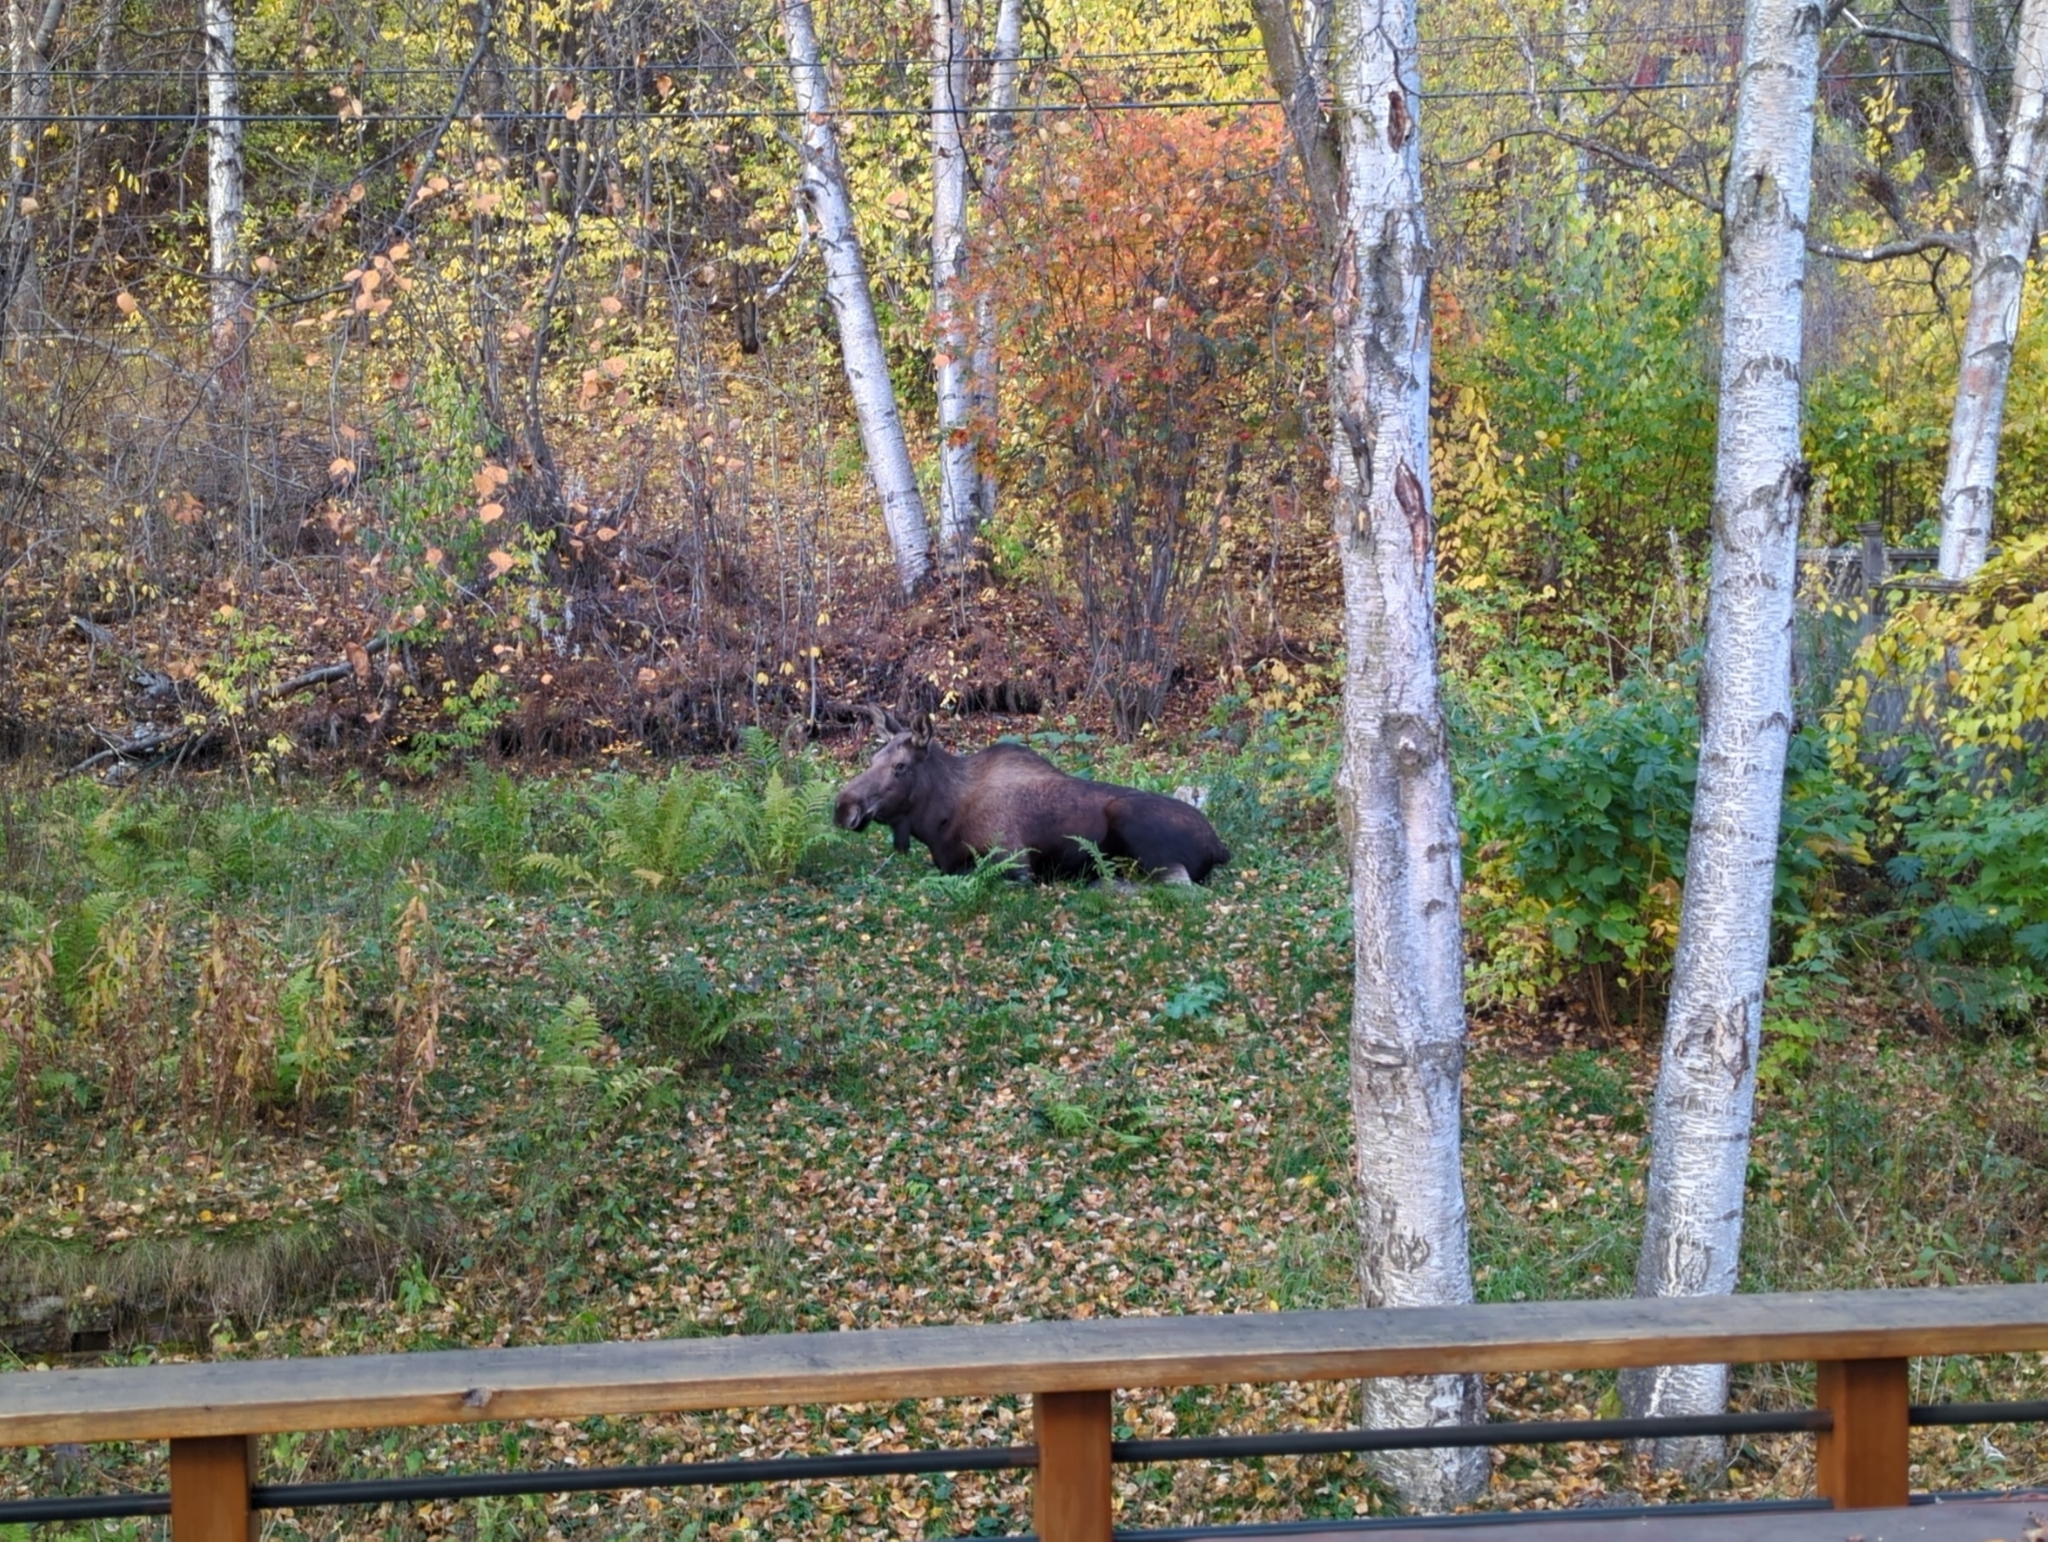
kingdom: Animalia
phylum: Chordata
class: Mammalia
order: Artiodactyla
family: Cervidae
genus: Alces
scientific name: Alces alces
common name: Moose
